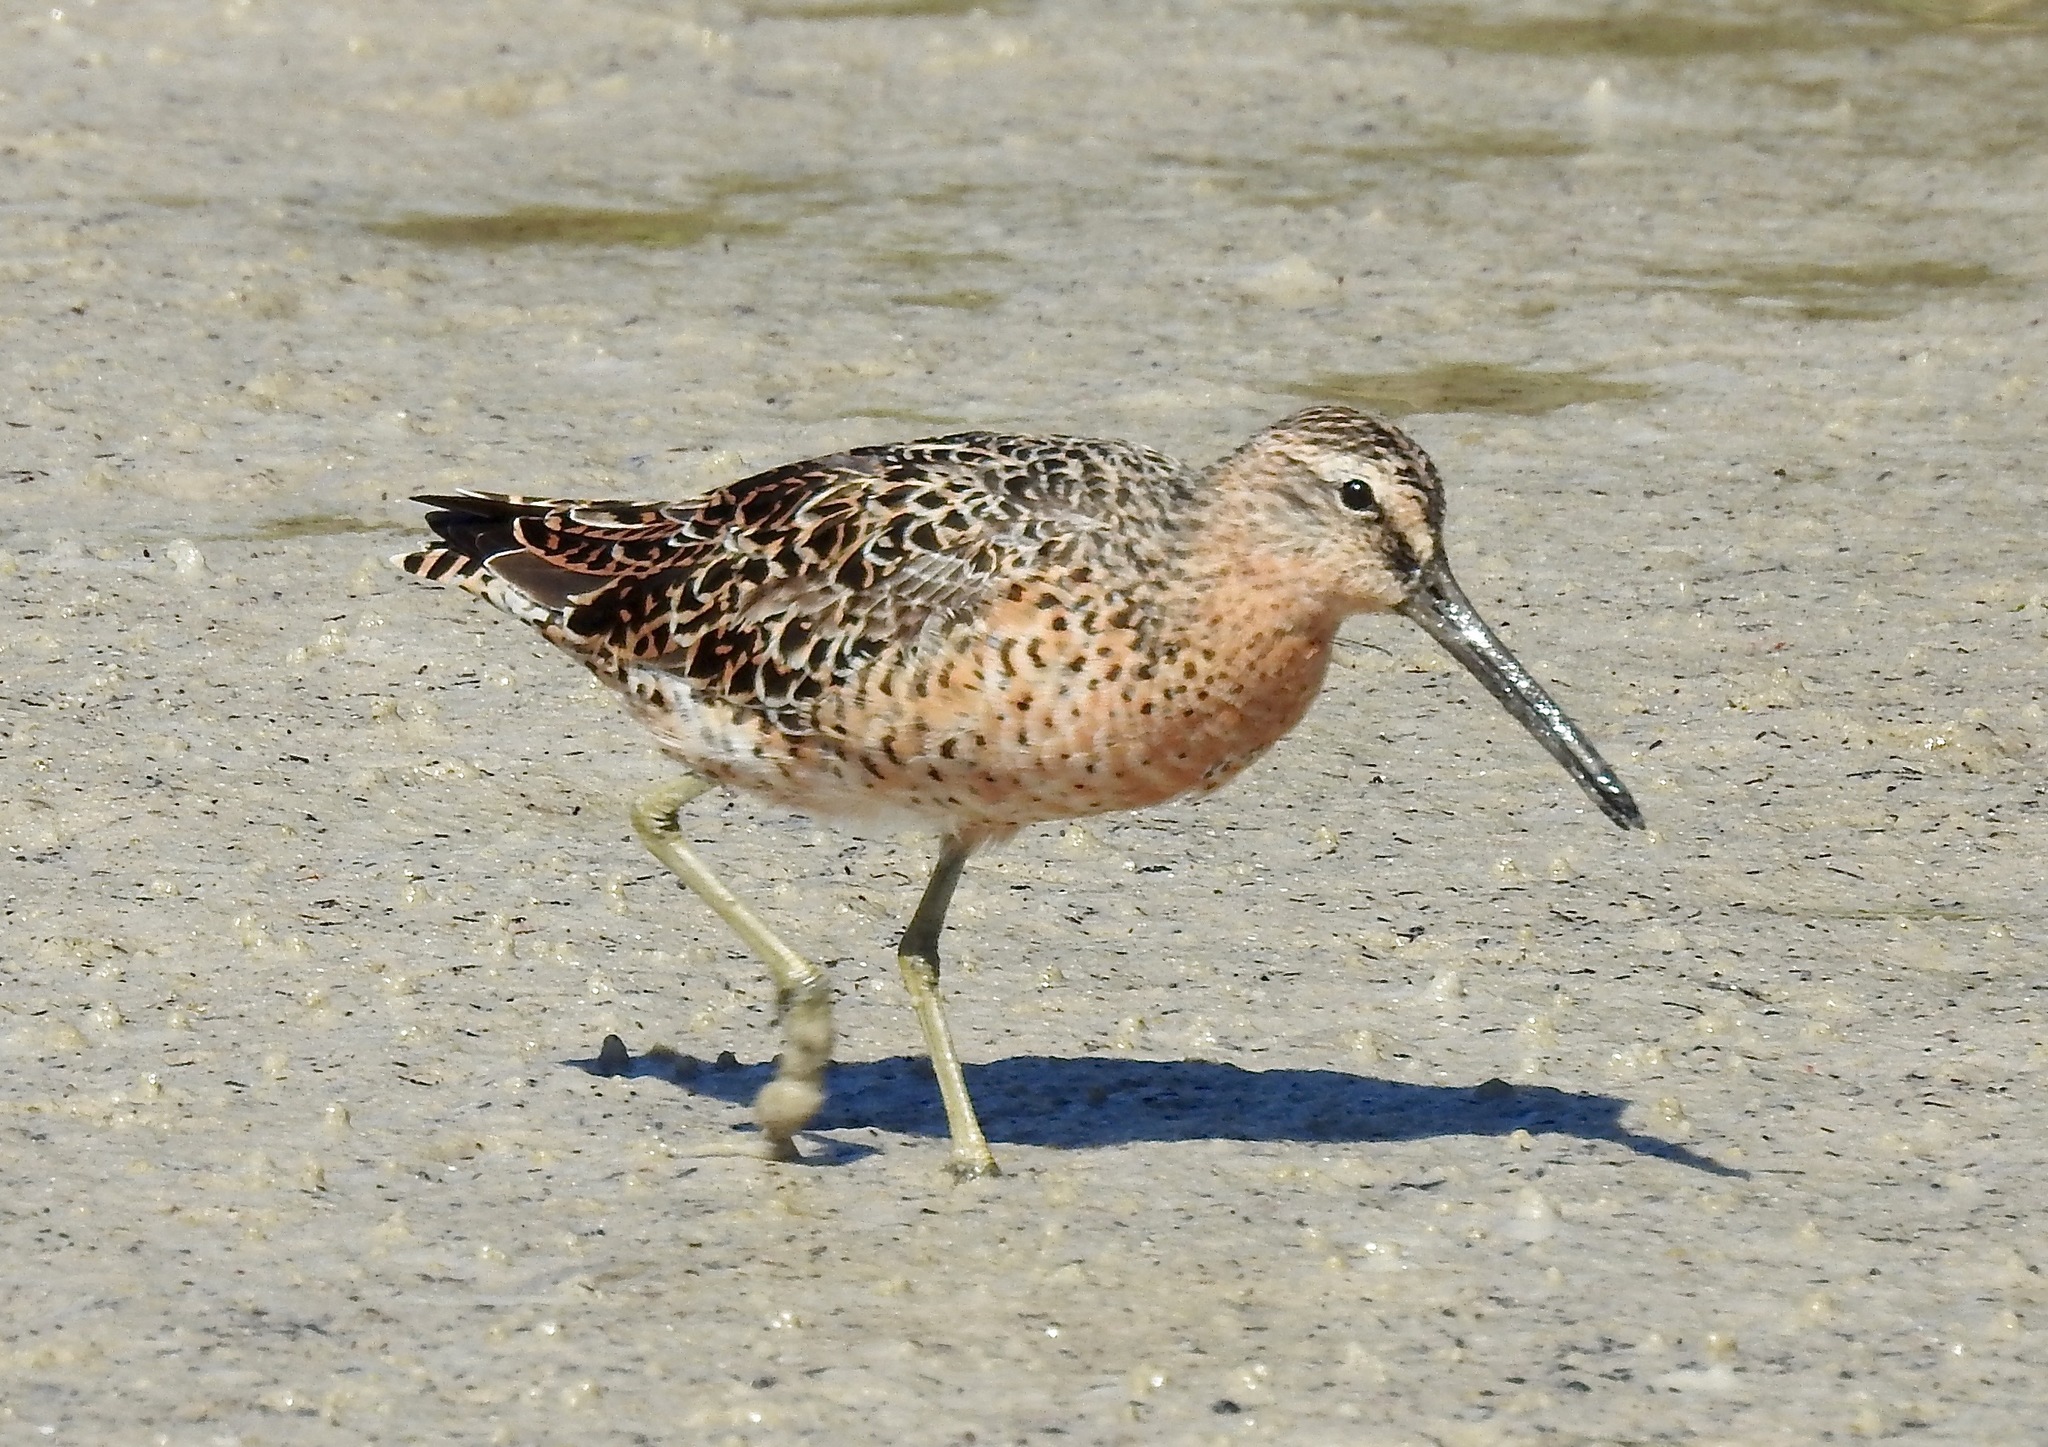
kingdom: Animalia
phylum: Chordata
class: Aves
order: Charadriiformes
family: Scolopacidae
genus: Limnodromus
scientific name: Limnodromus griseus
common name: Short-billed dowitcher
